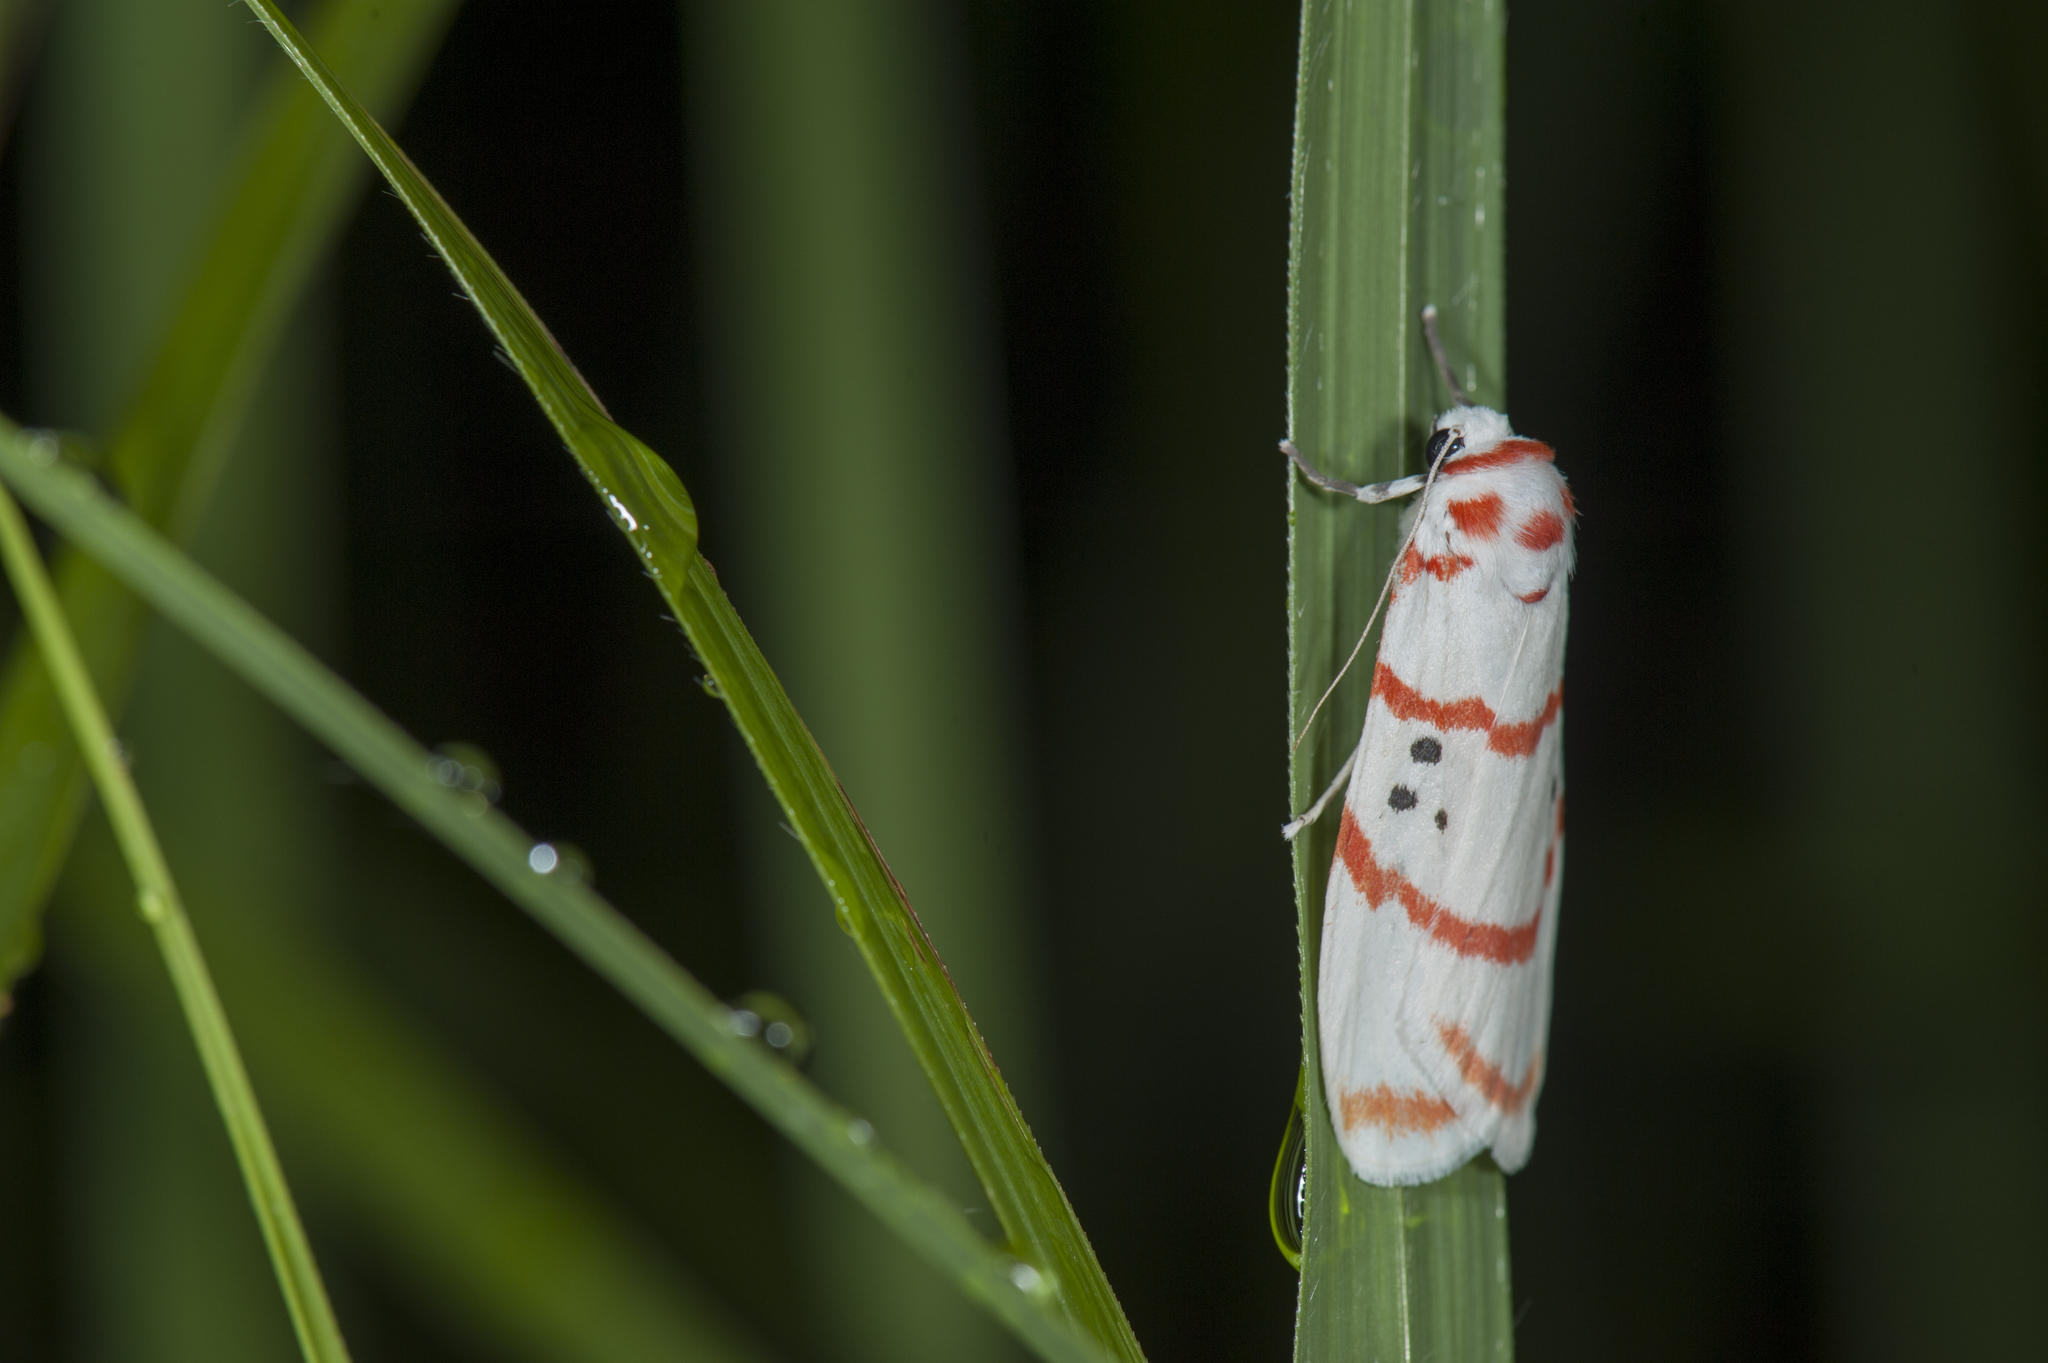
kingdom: Animalia
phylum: Arthropoda
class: Insecta
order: Lepidoptera
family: Erebidae
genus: Cyana
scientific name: Cyana subalba
